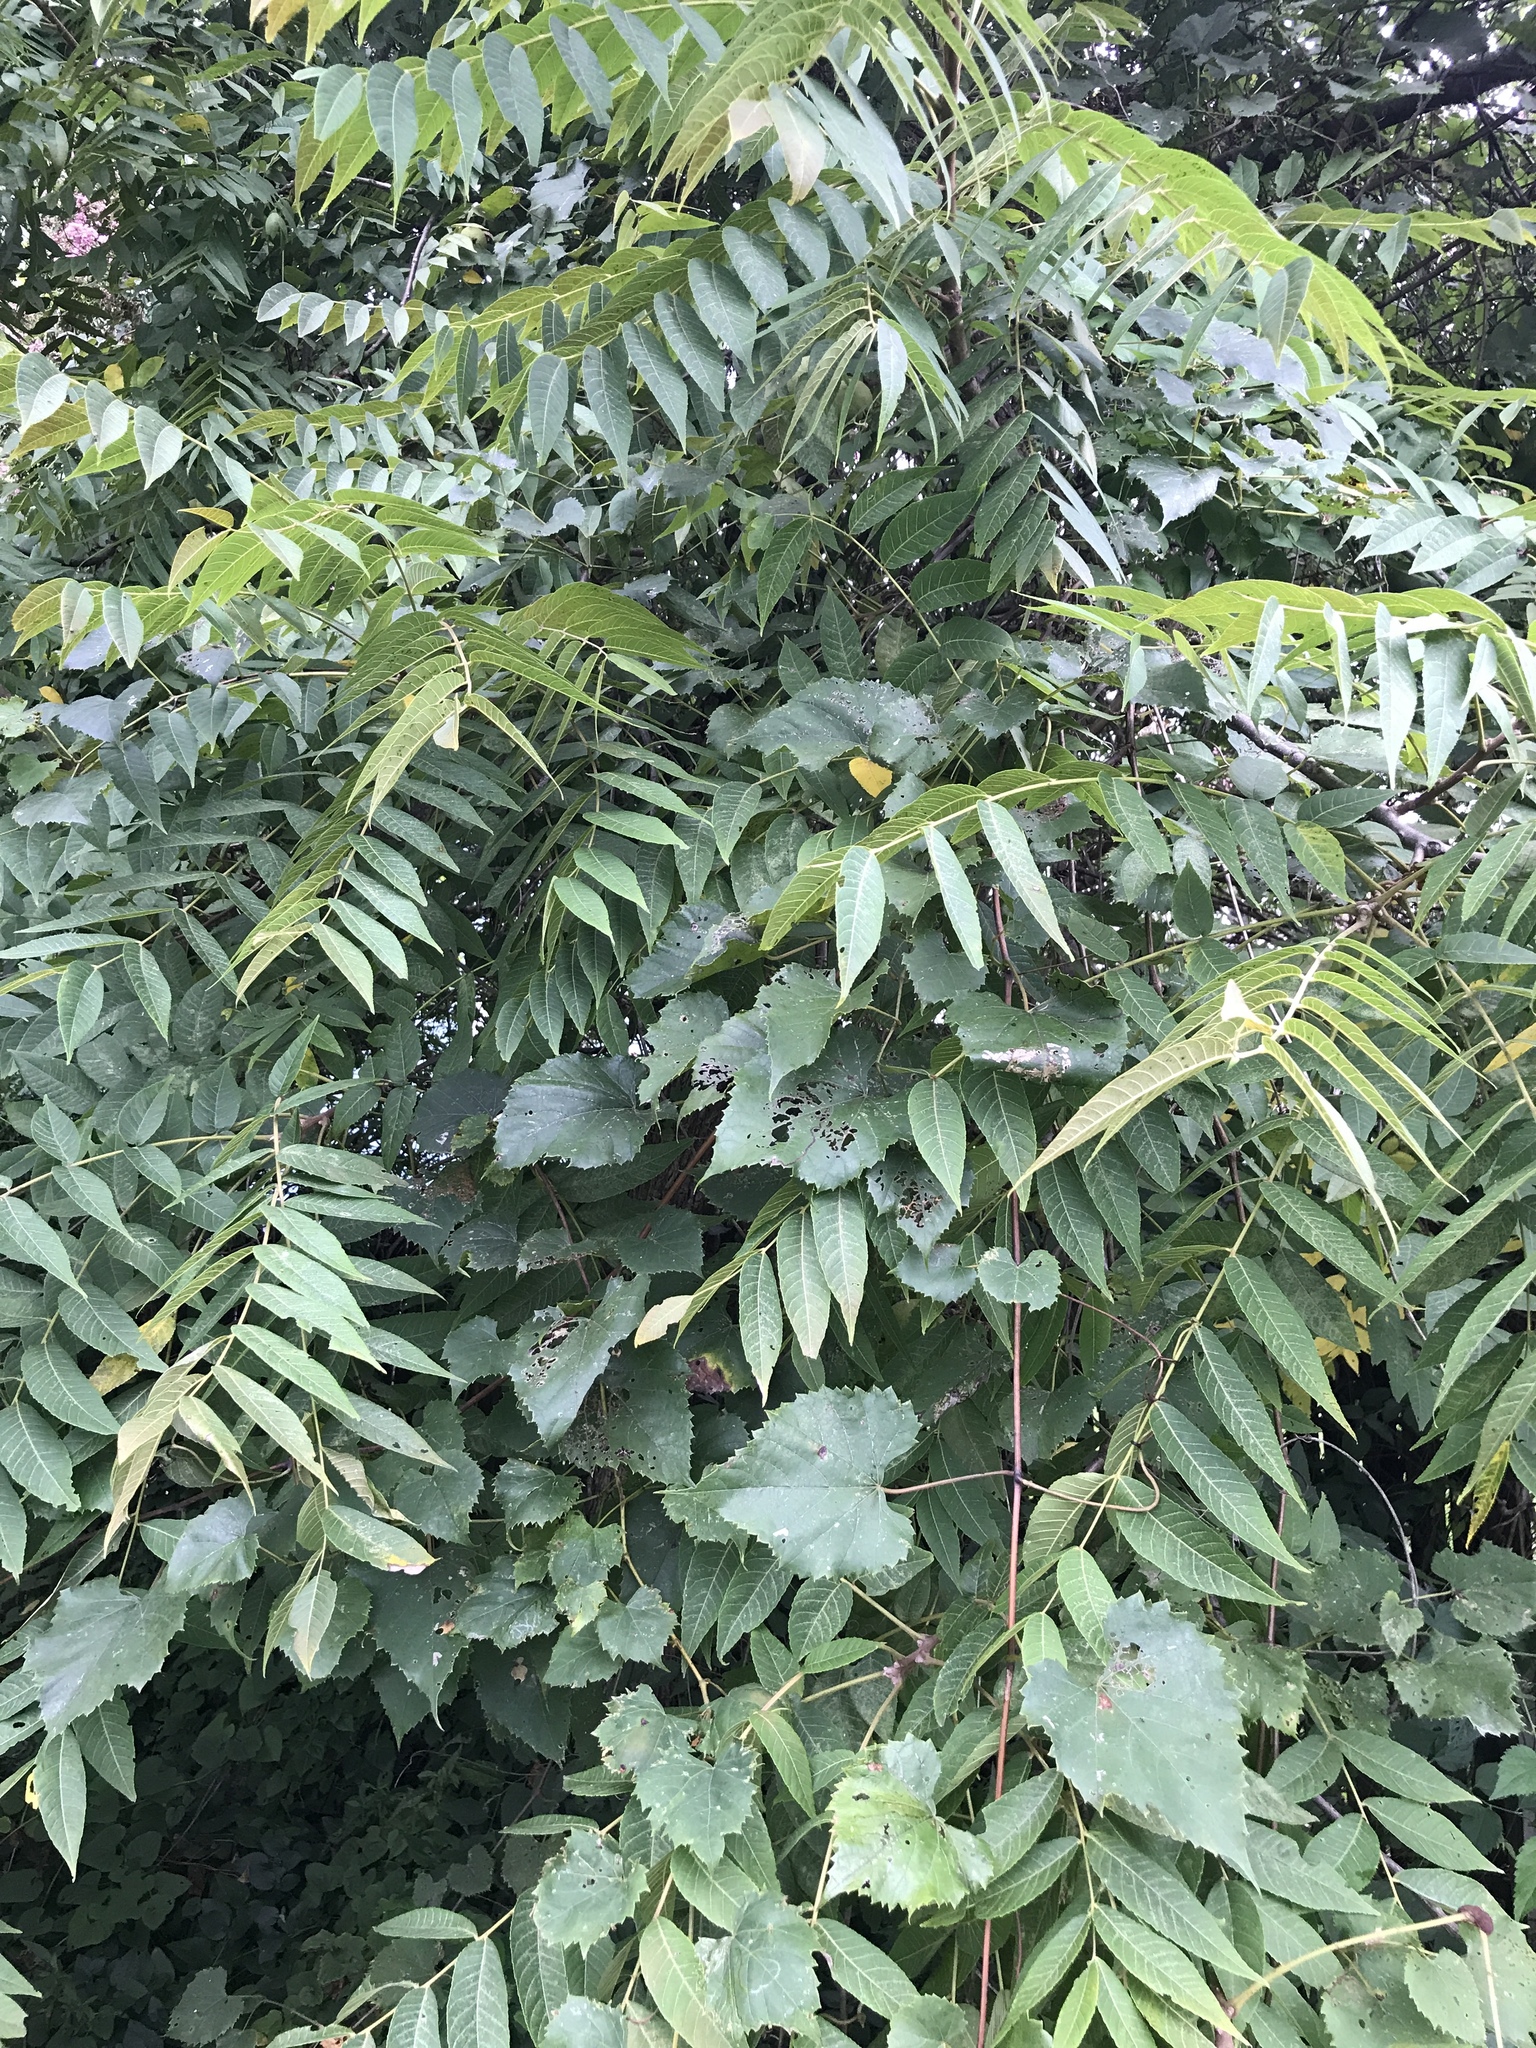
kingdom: Plantae
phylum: Tracheophyta
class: Magnoliopsida
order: Fagales
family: Juglandaceae
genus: Juglans
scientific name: Juglans nigra
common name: Black walnut
